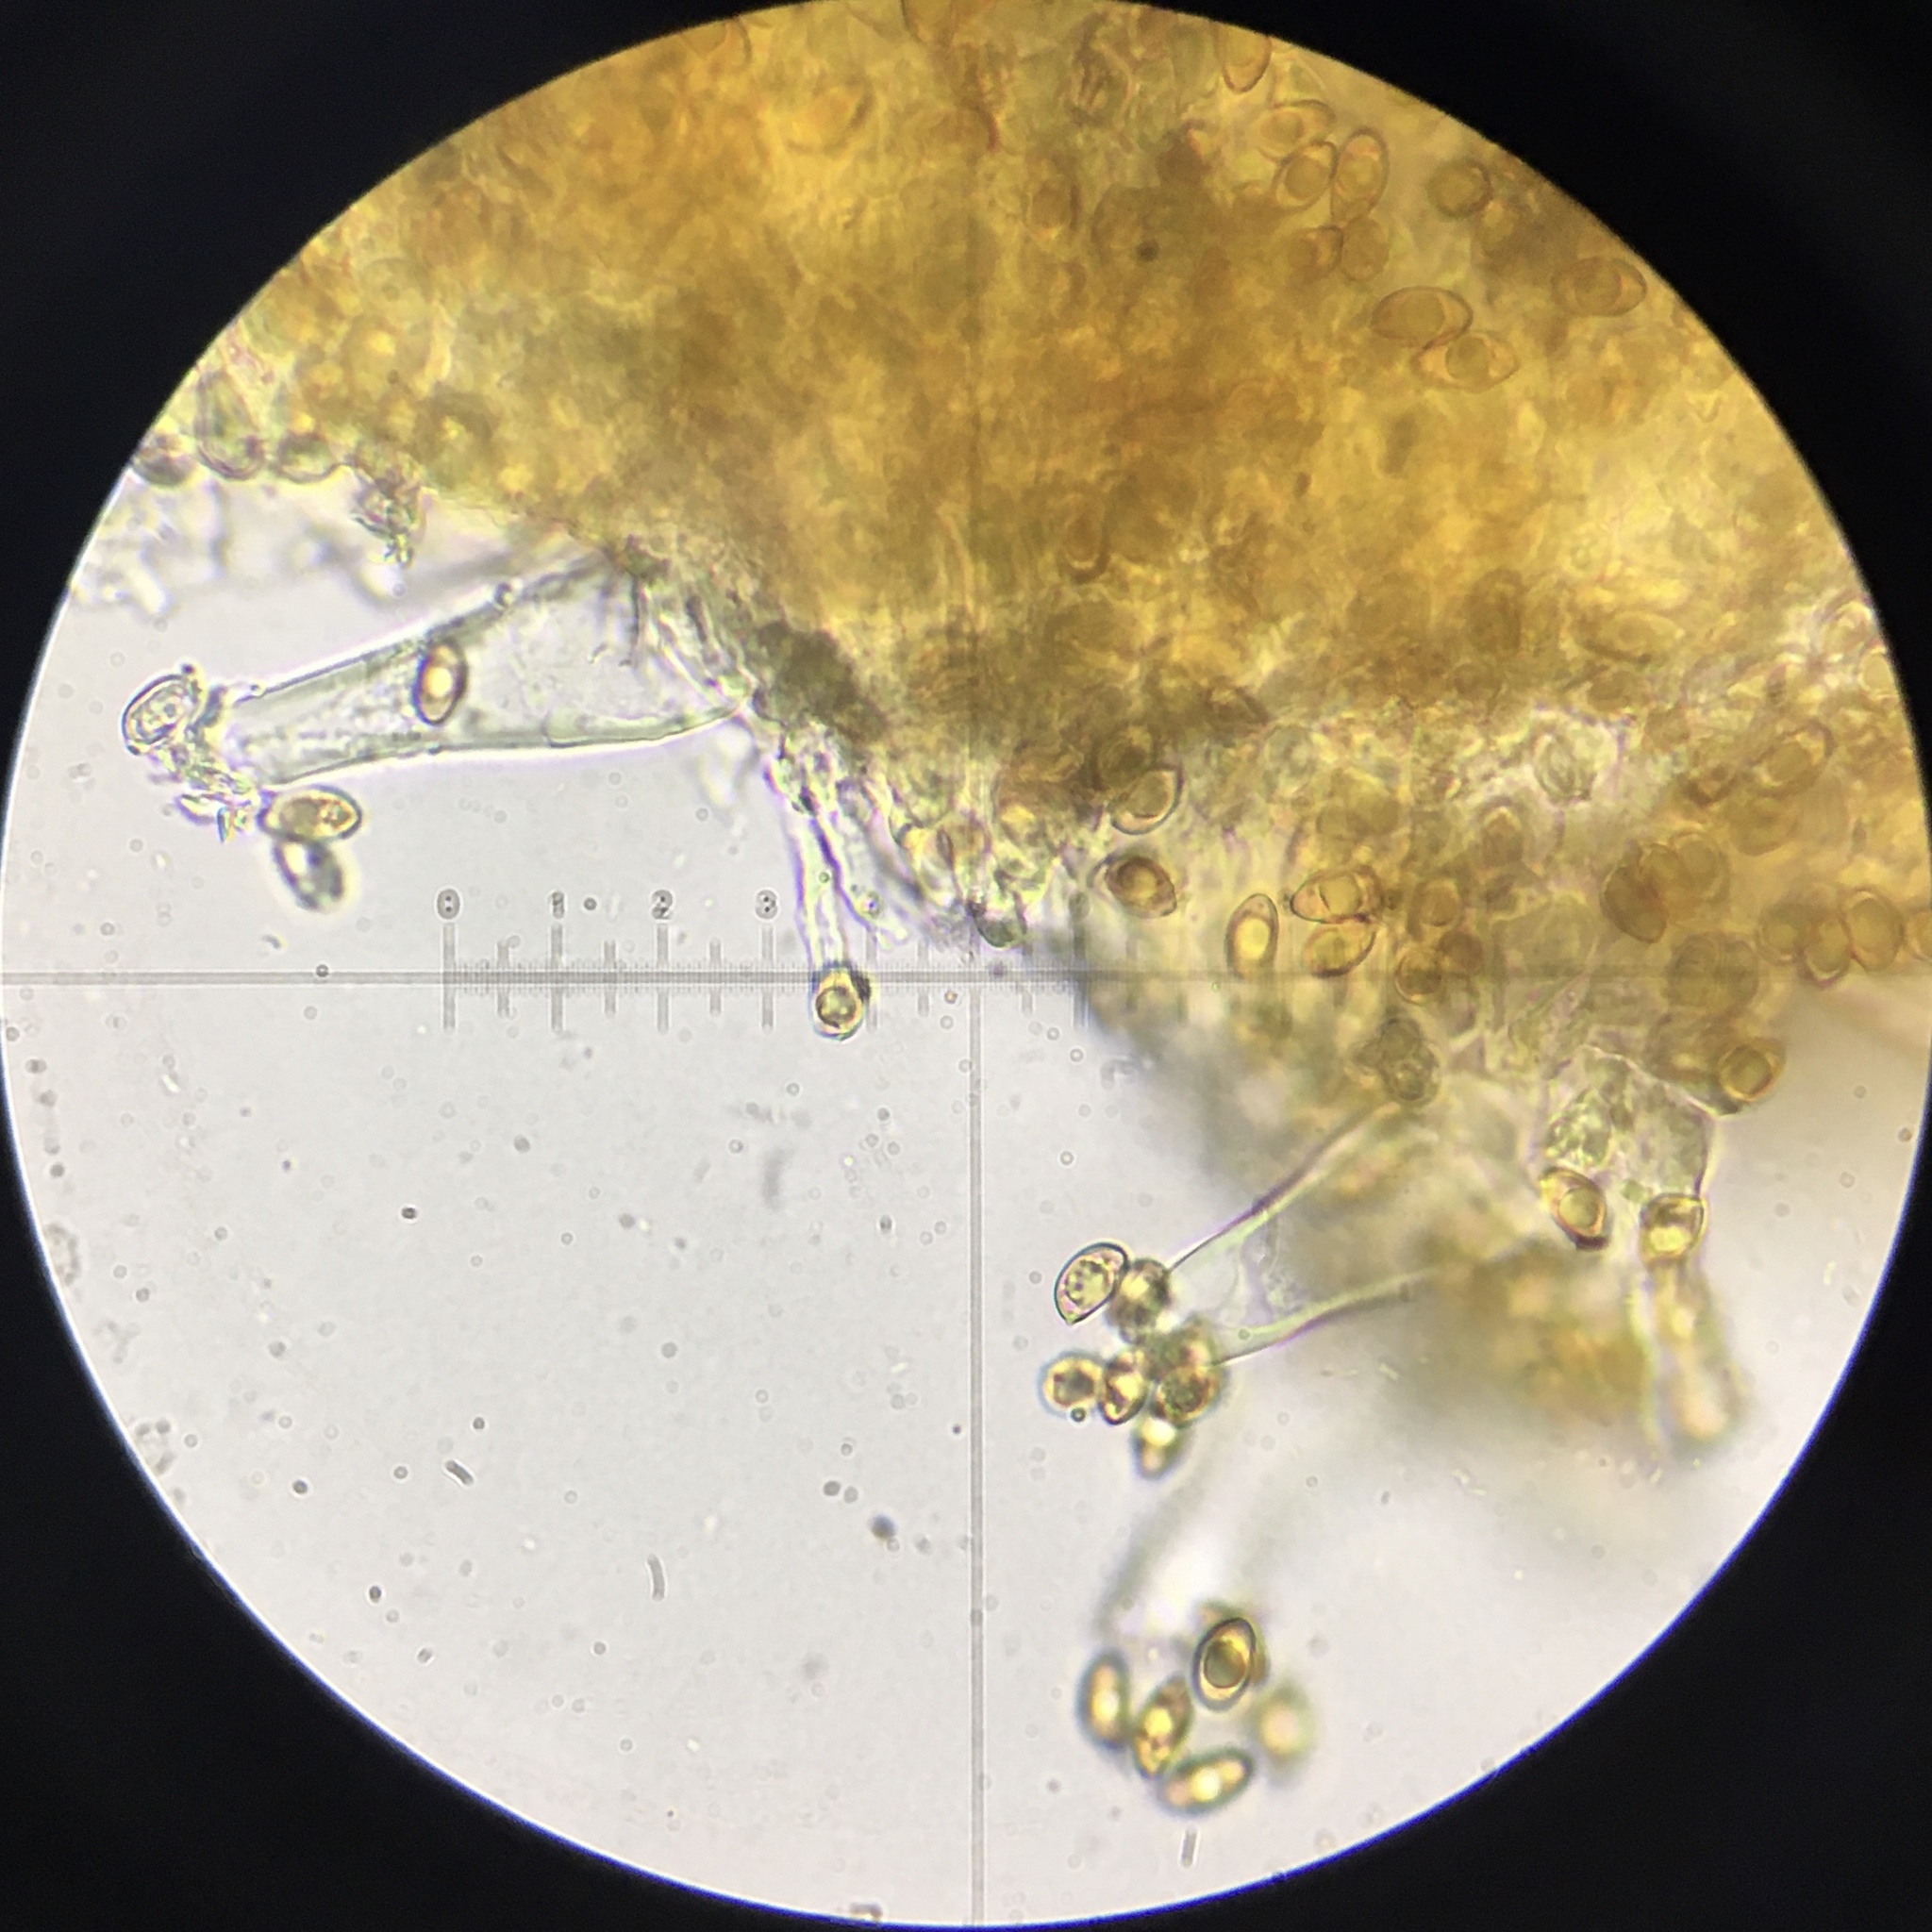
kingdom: Fungi
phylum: Basidiomycota
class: Agaricomycetes
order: Agaricales
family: Inocybaceae
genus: Inocybe
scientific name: Inocybe agglutinata
